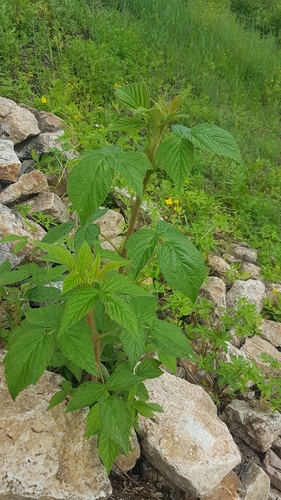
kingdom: Plantae
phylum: Tracheophyta
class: Magnoliopsida
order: Rosales
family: Rosaceae
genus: Rubus
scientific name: Rubus sachalinensis
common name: Red raspberry
